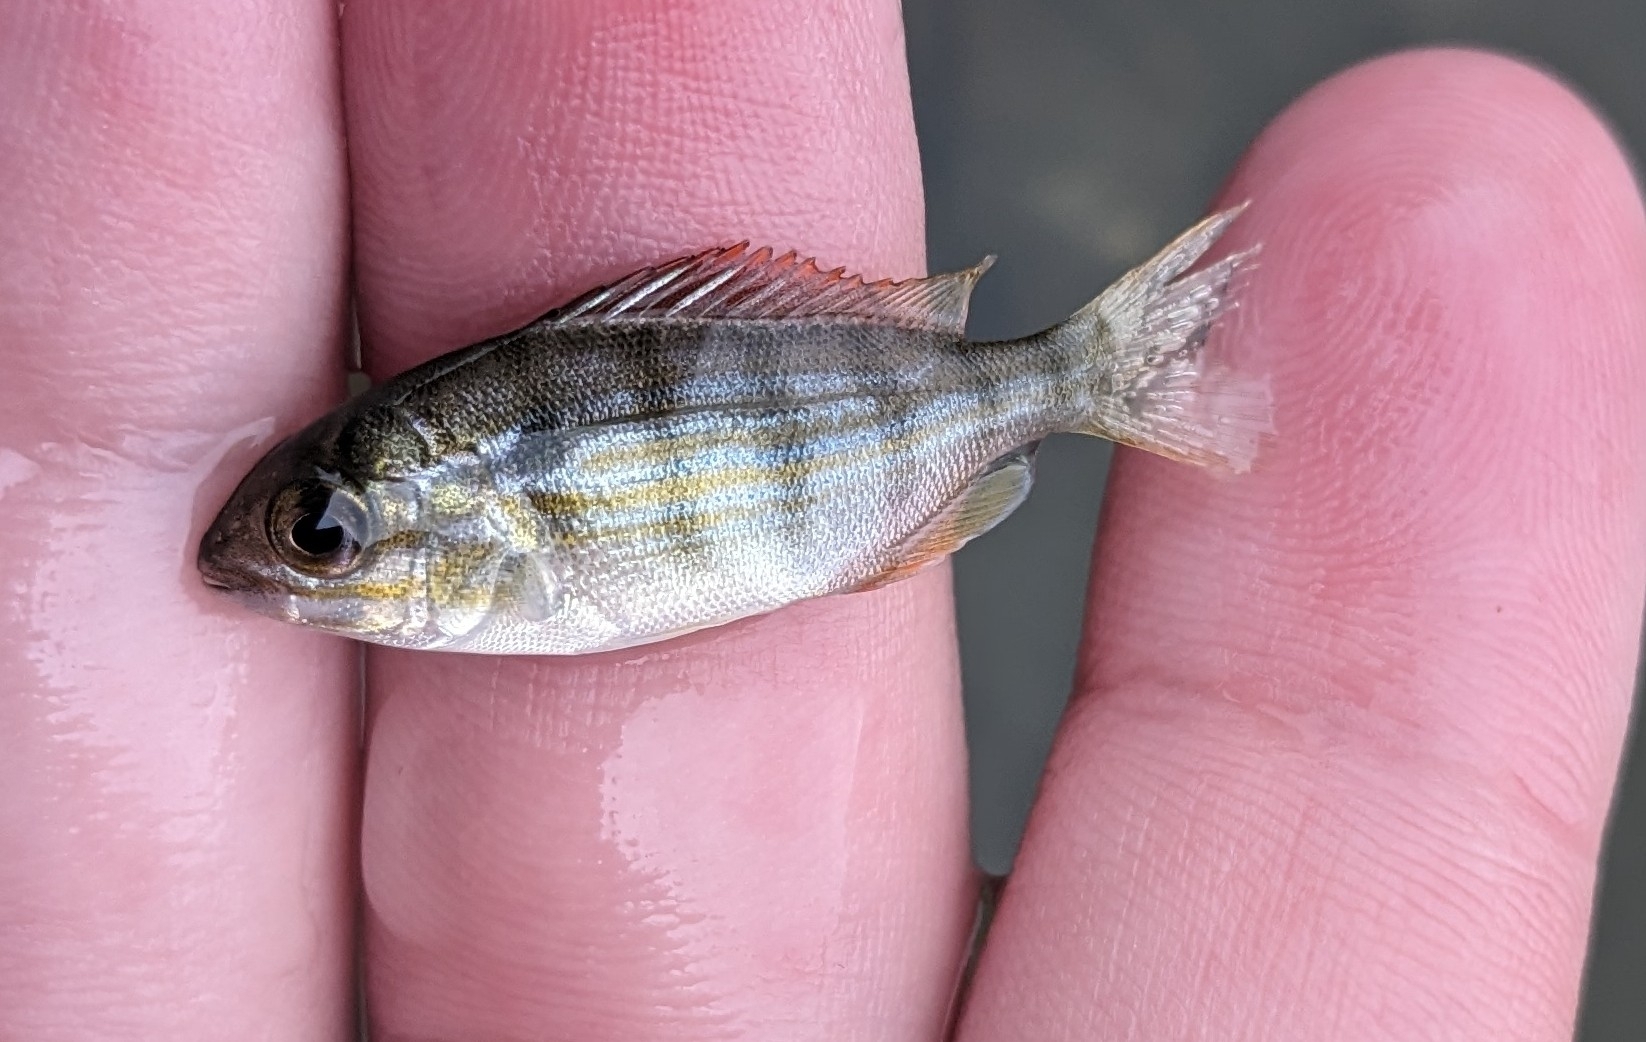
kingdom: Animalia
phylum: Chordata
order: Perciformes
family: Sparidae
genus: Lagodon
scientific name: Lagodon rhomboides
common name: Pinfish
